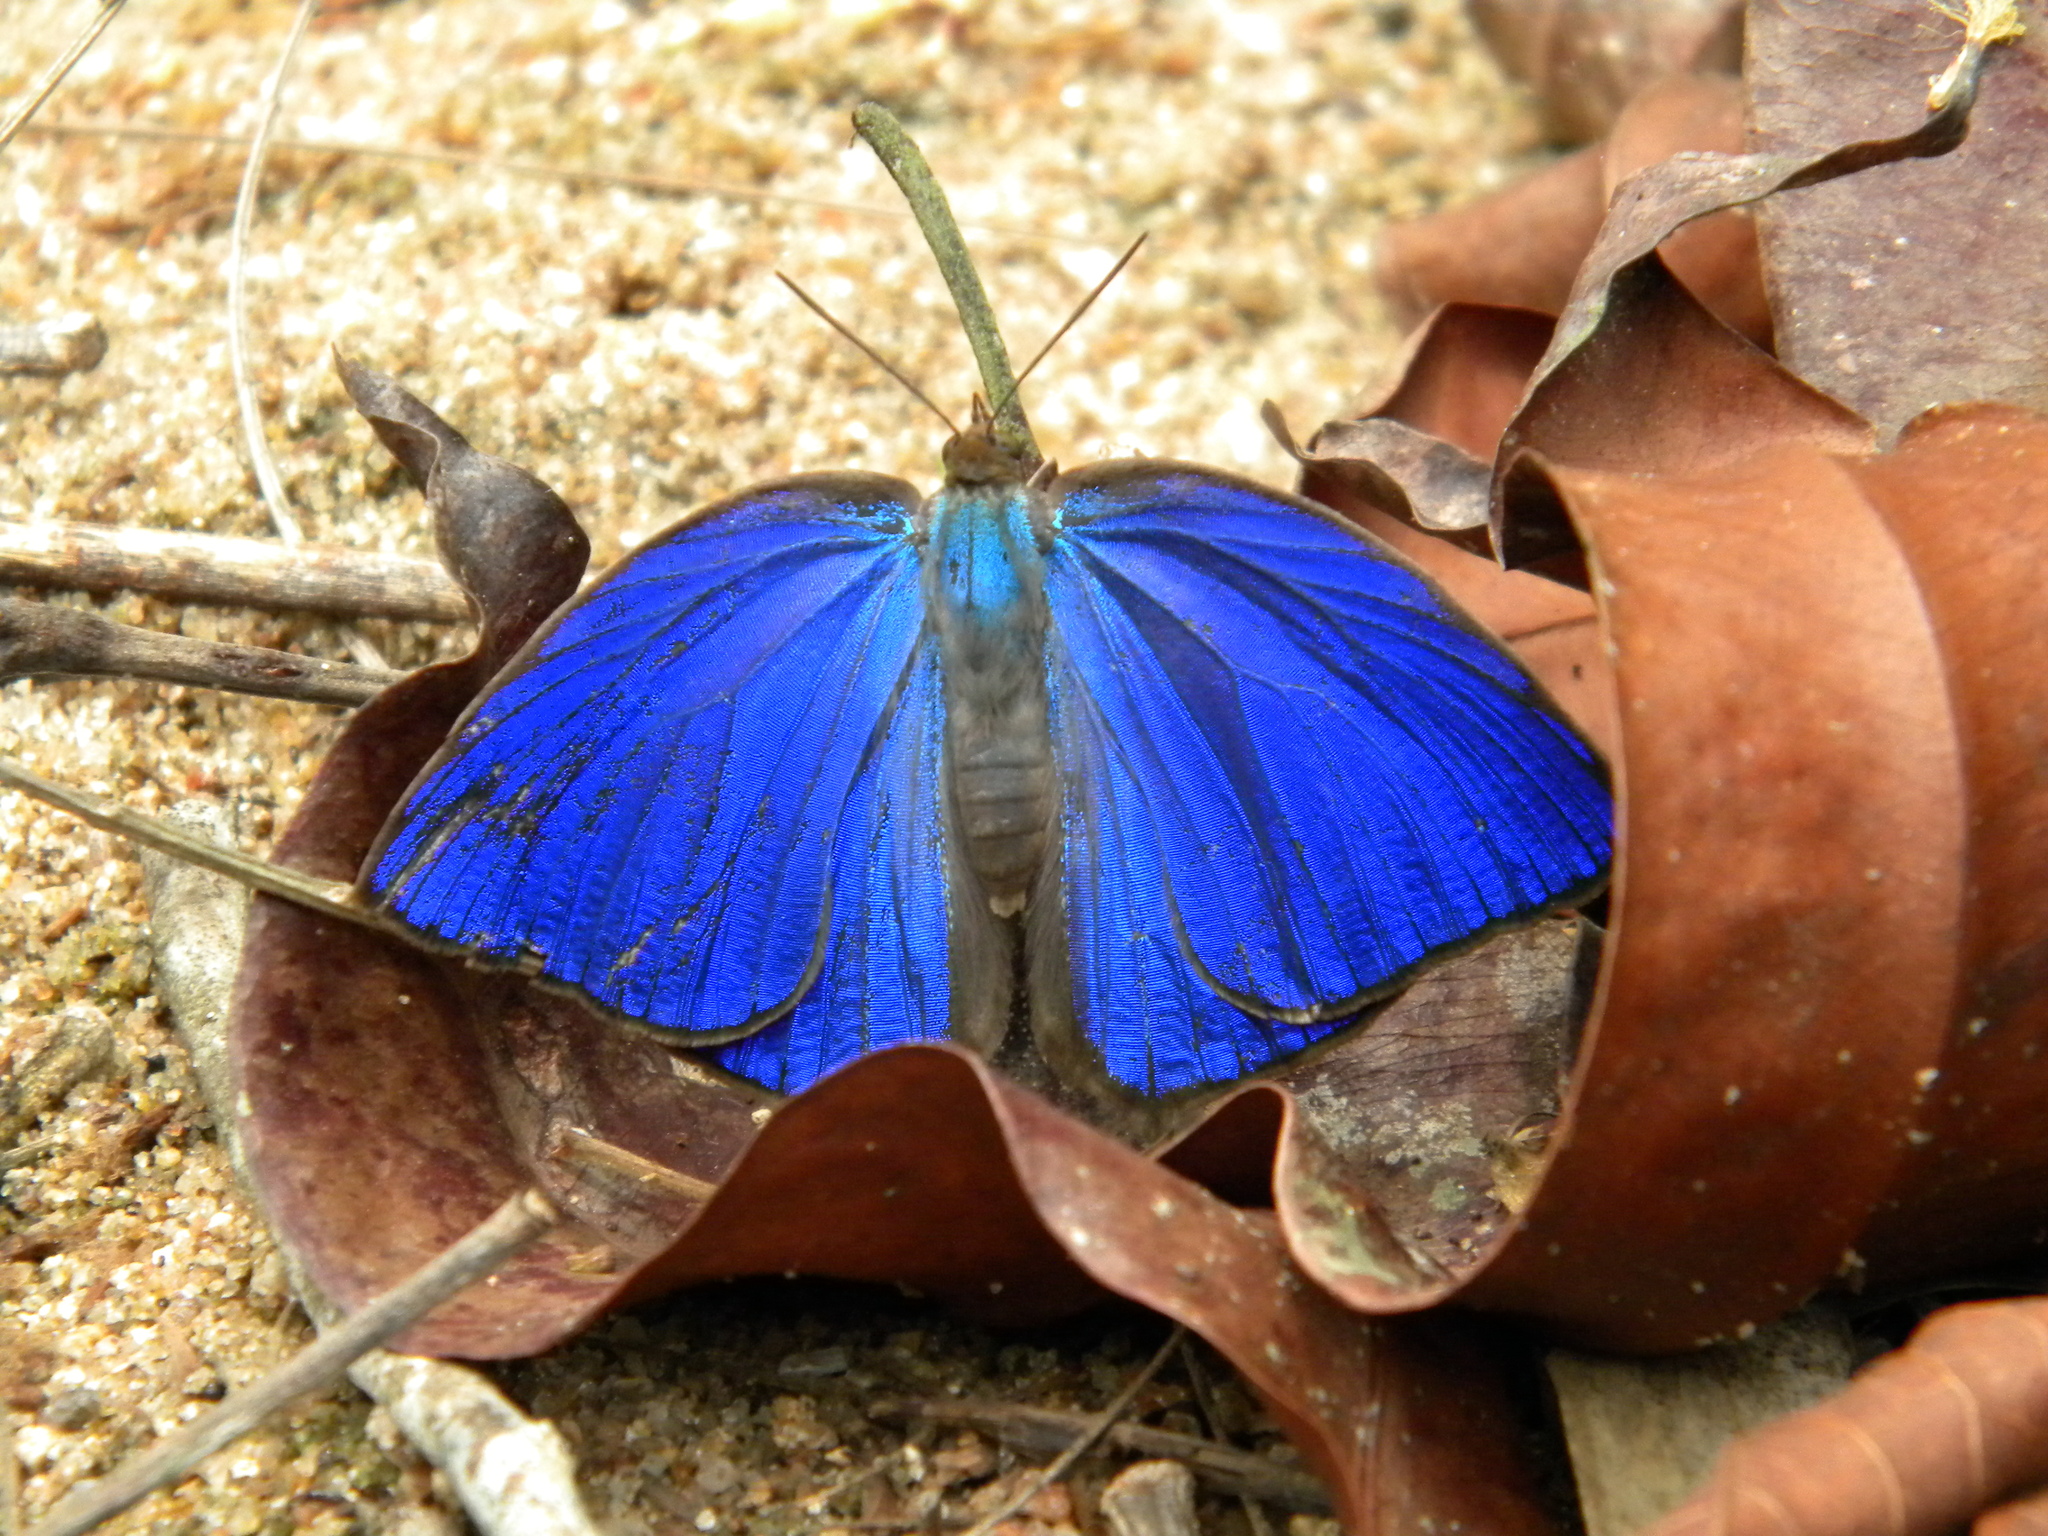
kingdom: Animalia
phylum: Arthropoda
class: Insecta
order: Lepidoptera
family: Lycaenidae
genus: Arhopala
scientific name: Arhopala centaurus
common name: Dull oak-blue
